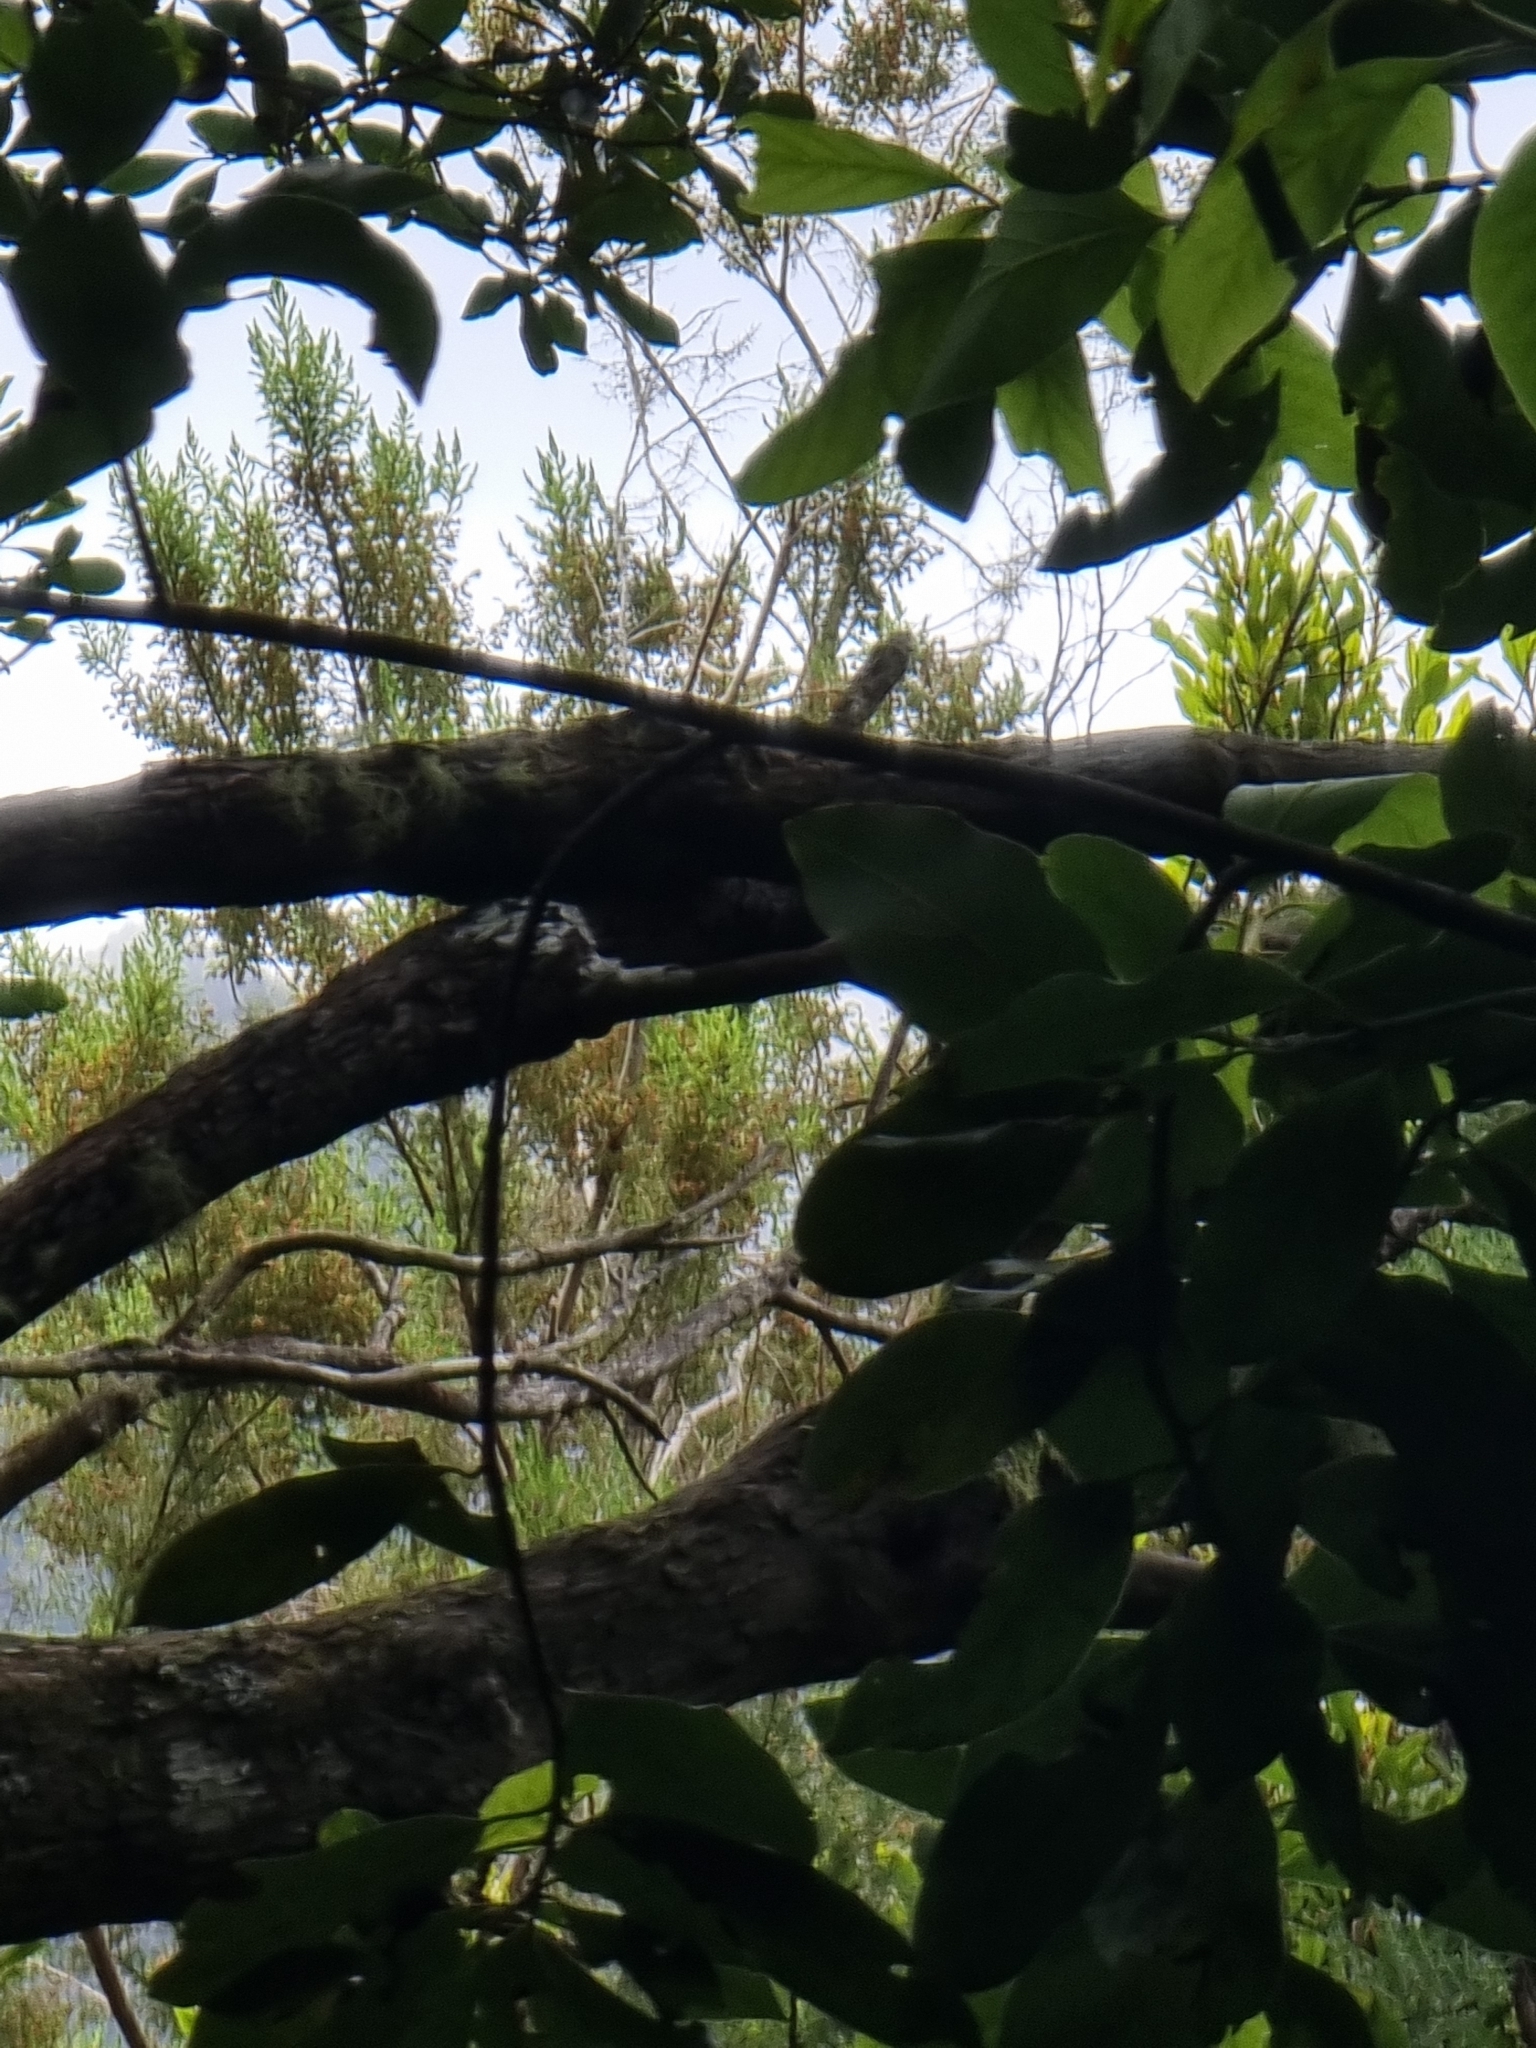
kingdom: Plantae
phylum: Tracheophyta
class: Magnoliopsida
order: Ericales
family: Ericaceae
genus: Erica
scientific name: Erica canariensis
